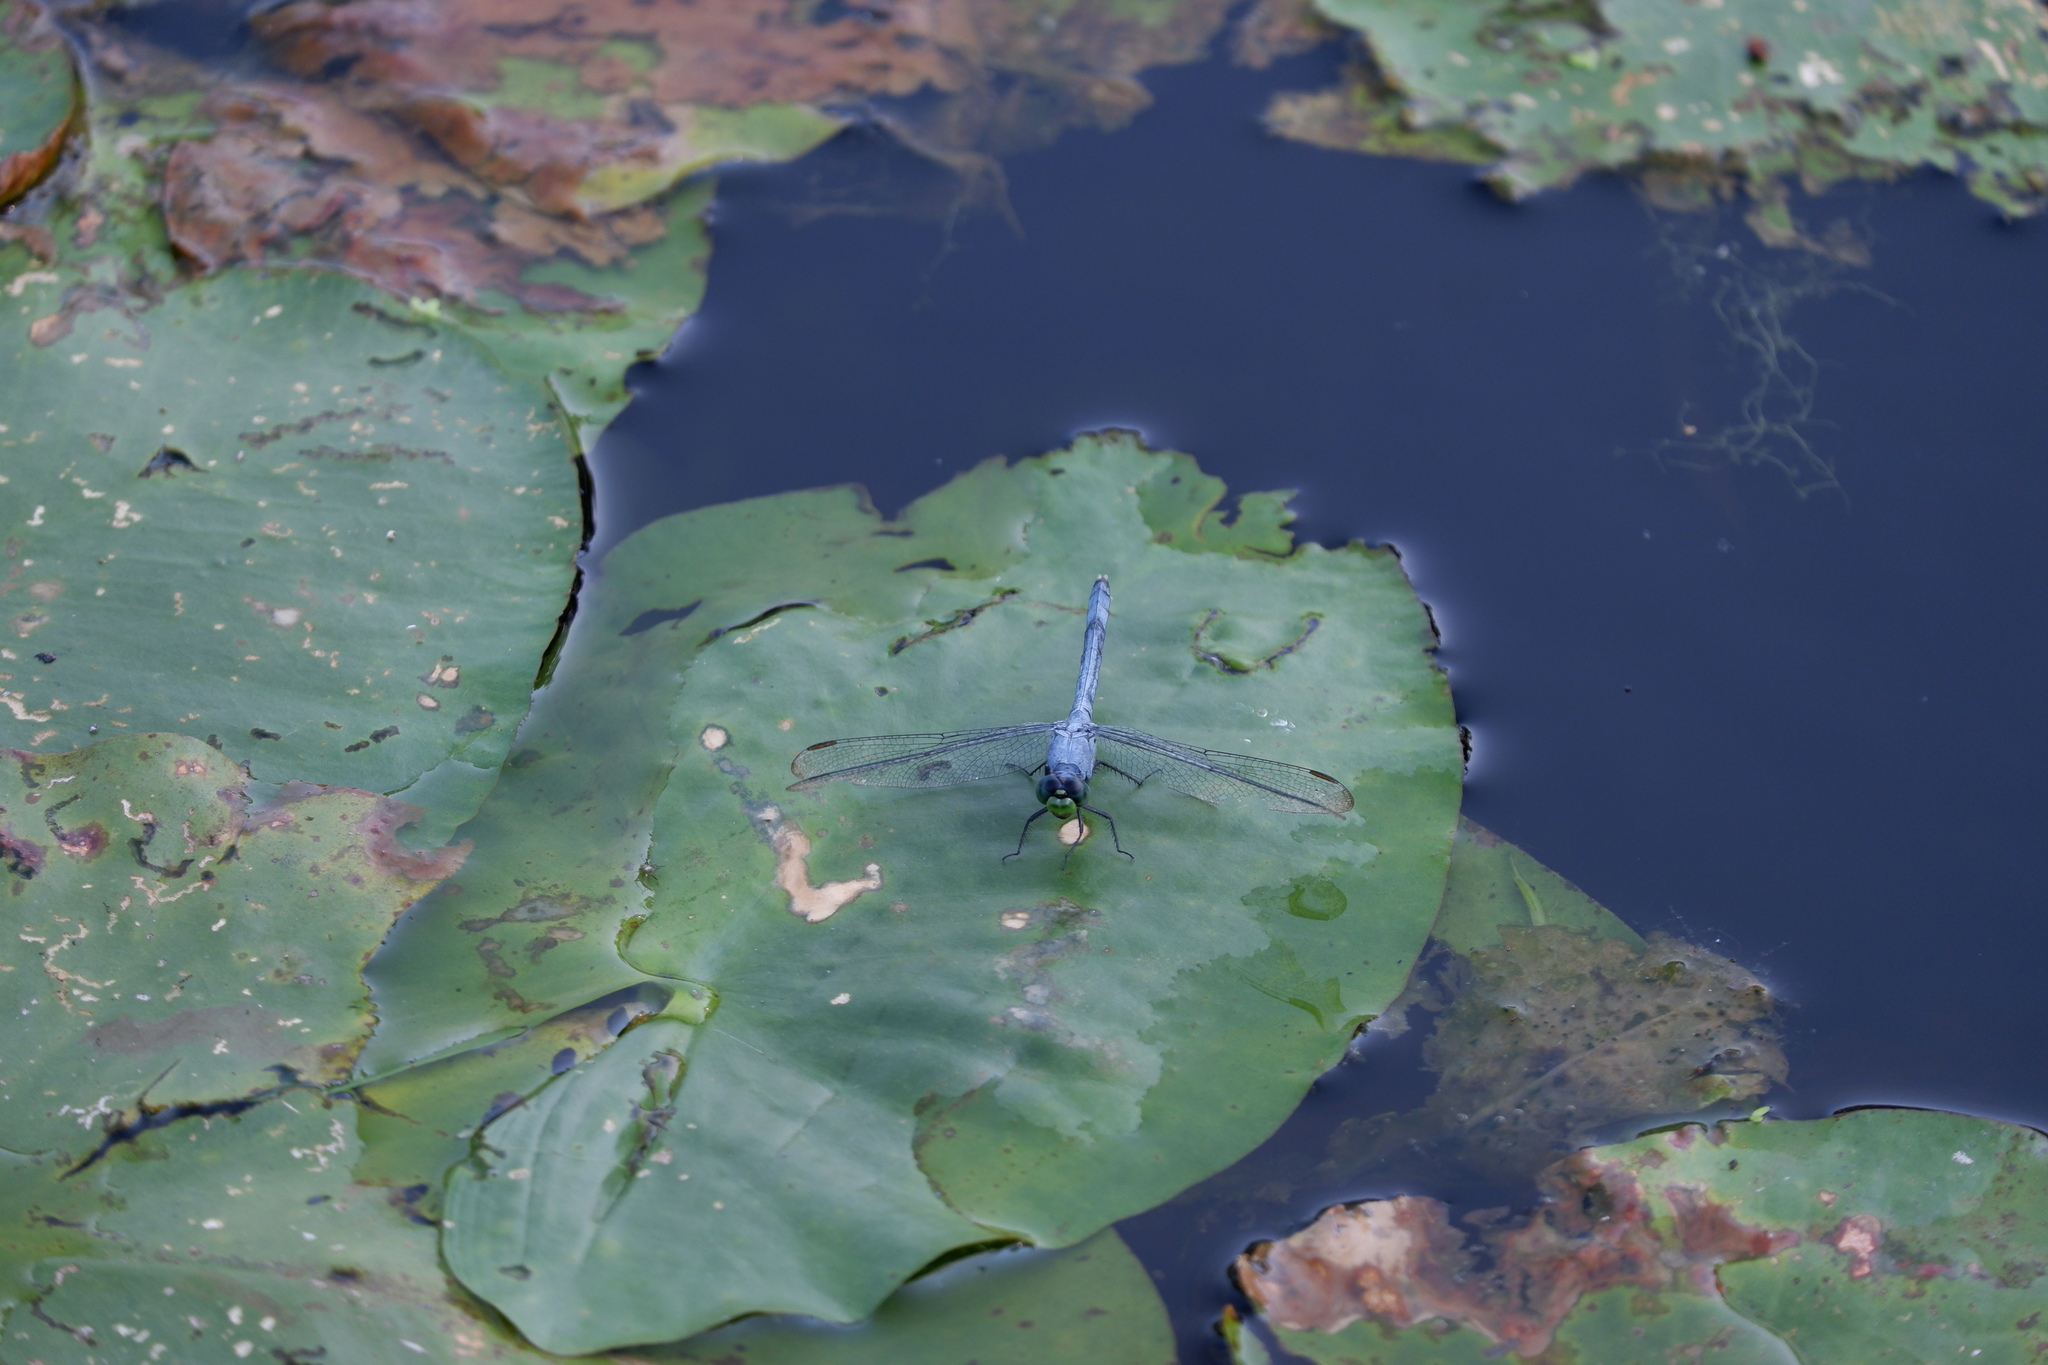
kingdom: Animalia
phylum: Arthropoda
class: Insecta
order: Odonata
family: Libellulidae
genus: Erythemis
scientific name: Erythemis simplicicollis
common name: Eastern pondhawk
